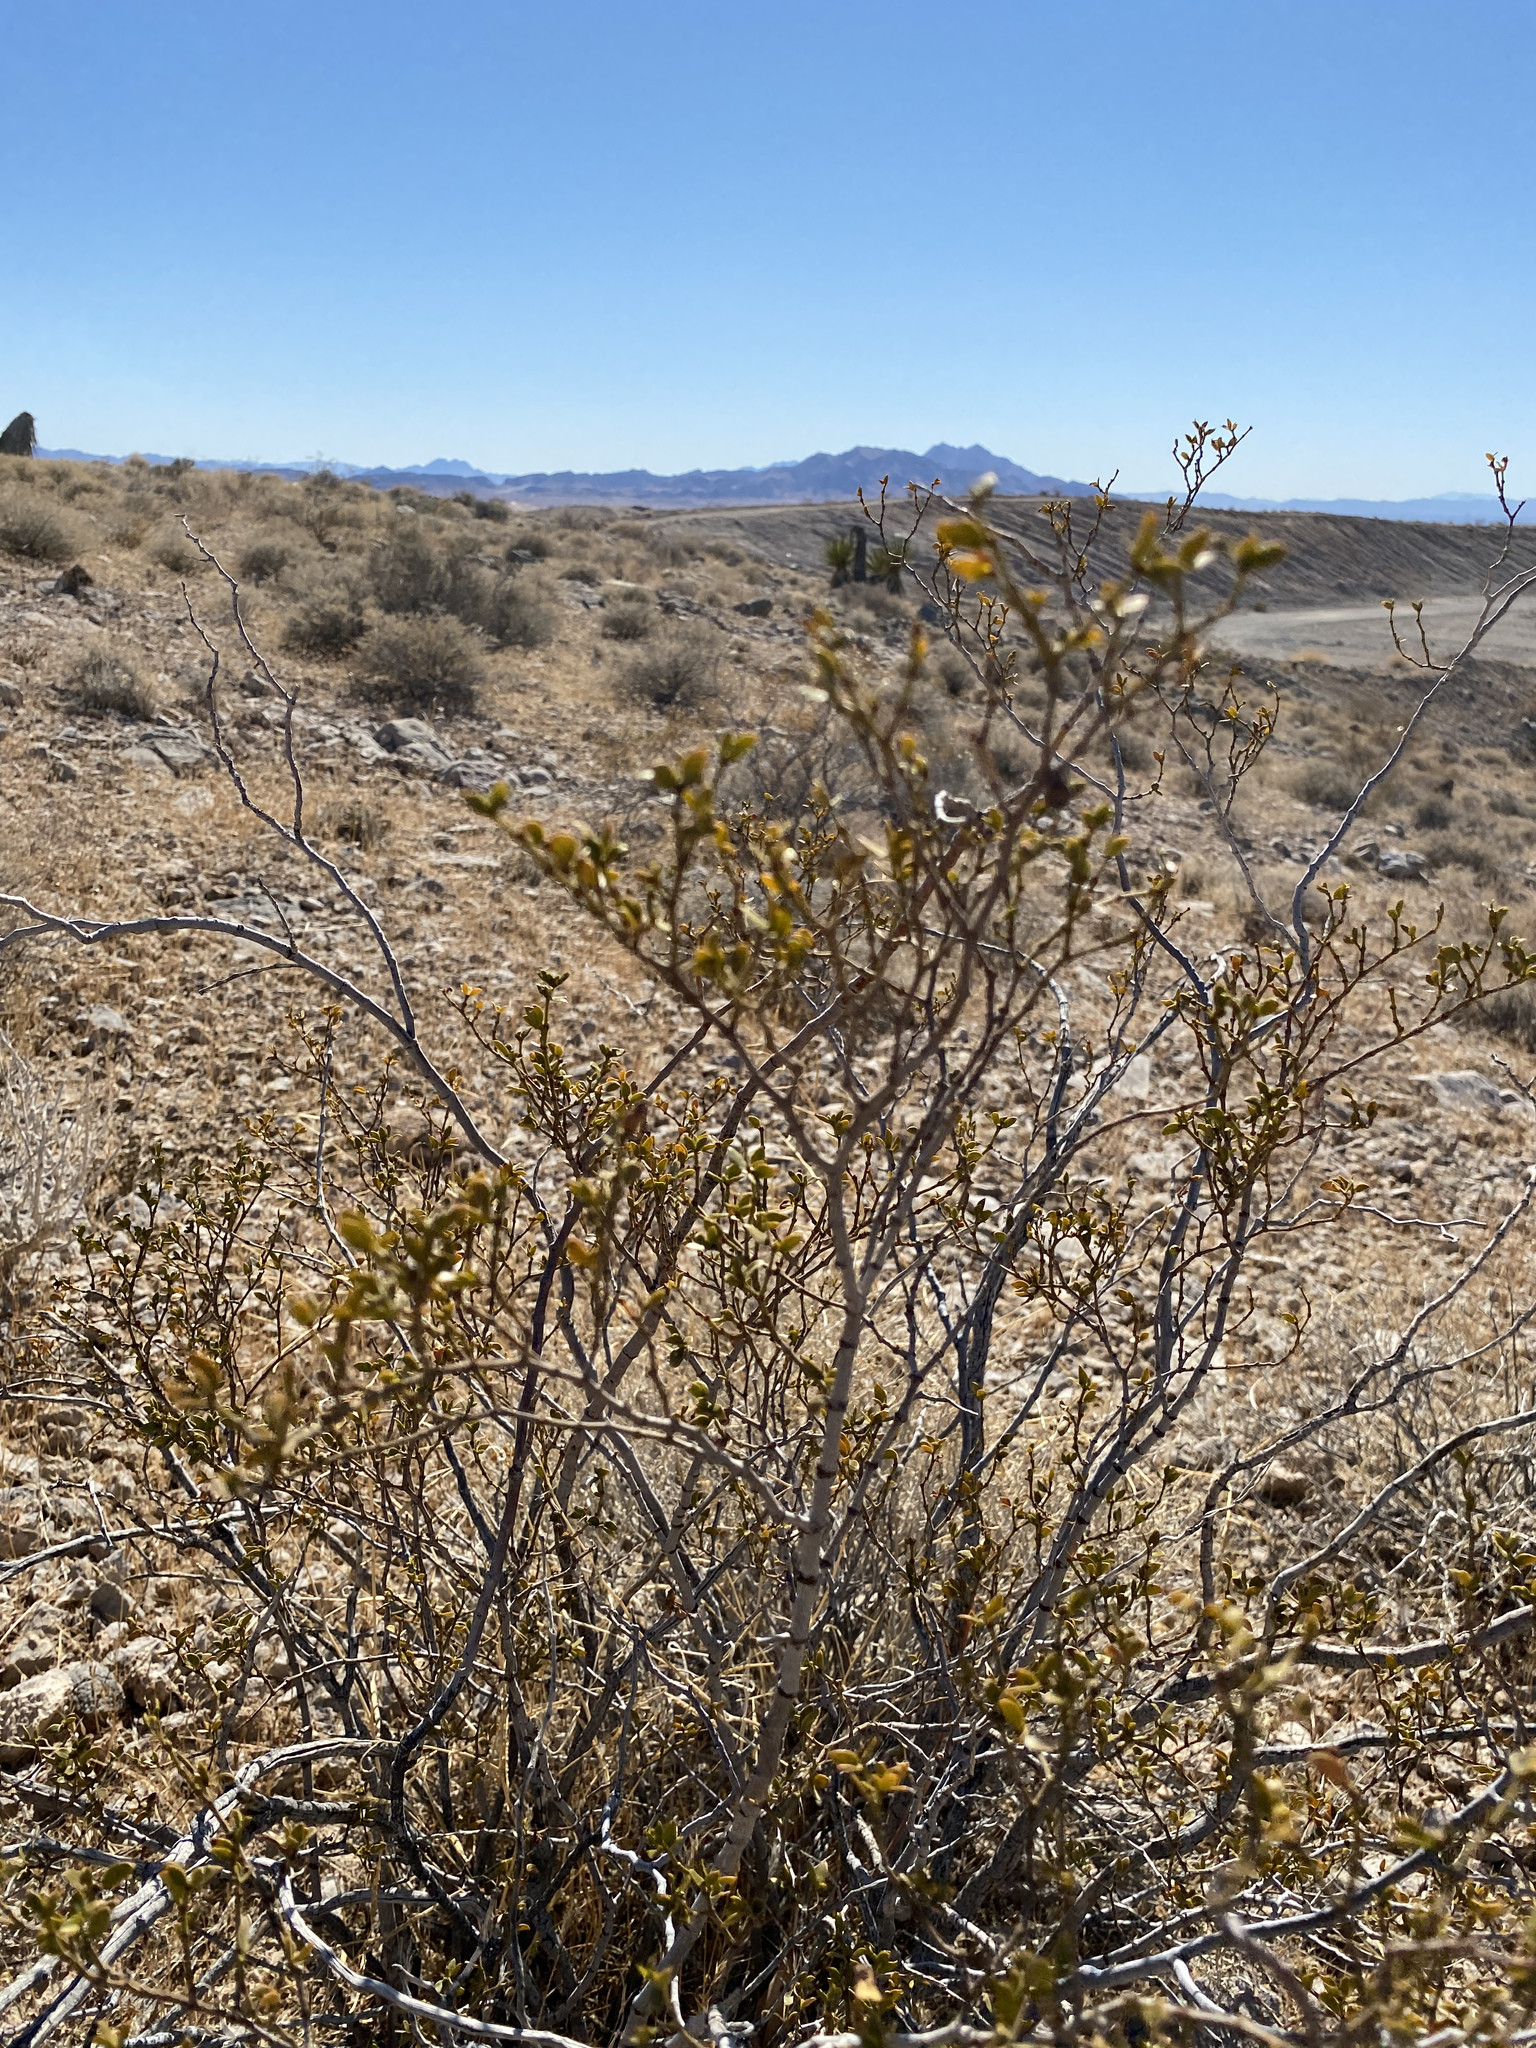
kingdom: Plantae
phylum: Tracheophyta
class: Magnoliopsida
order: Zygophyllales
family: Zygophyllaceae
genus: Larrea
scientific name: Larrea tridentata
